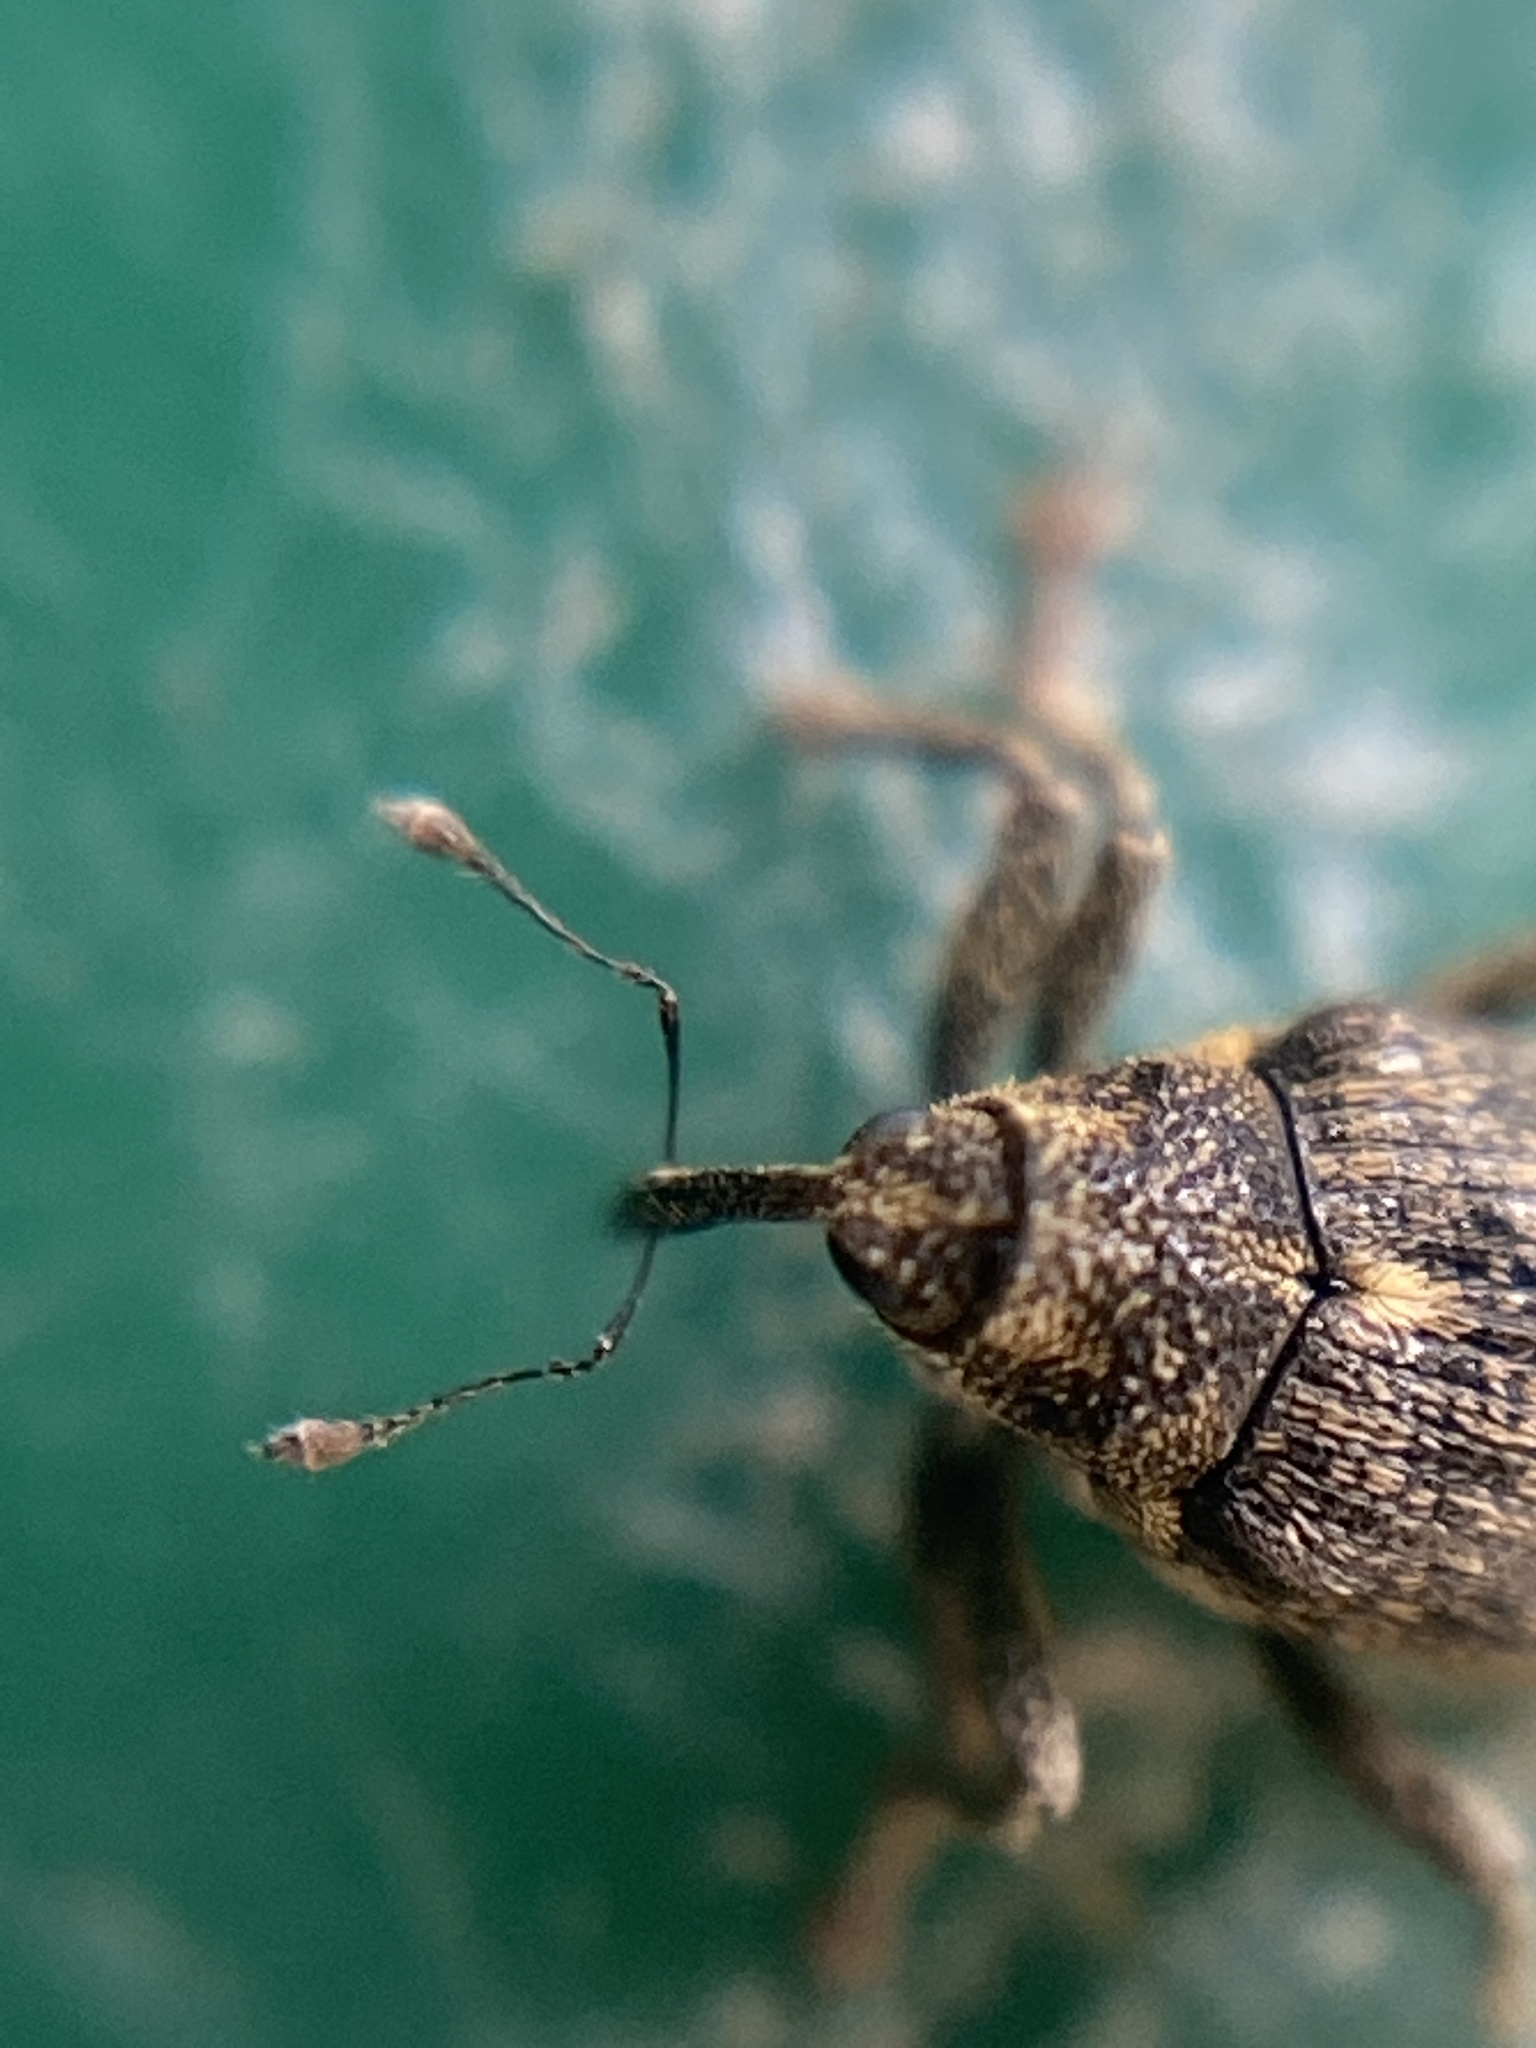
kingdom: Animalia
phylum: Arthropoda
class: Insecta
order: Coleoptera
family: Curculionidae
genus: Ceutorhynchus
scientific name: Ceutorhynchus pallidactylus
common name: Cabbage stem weavil
